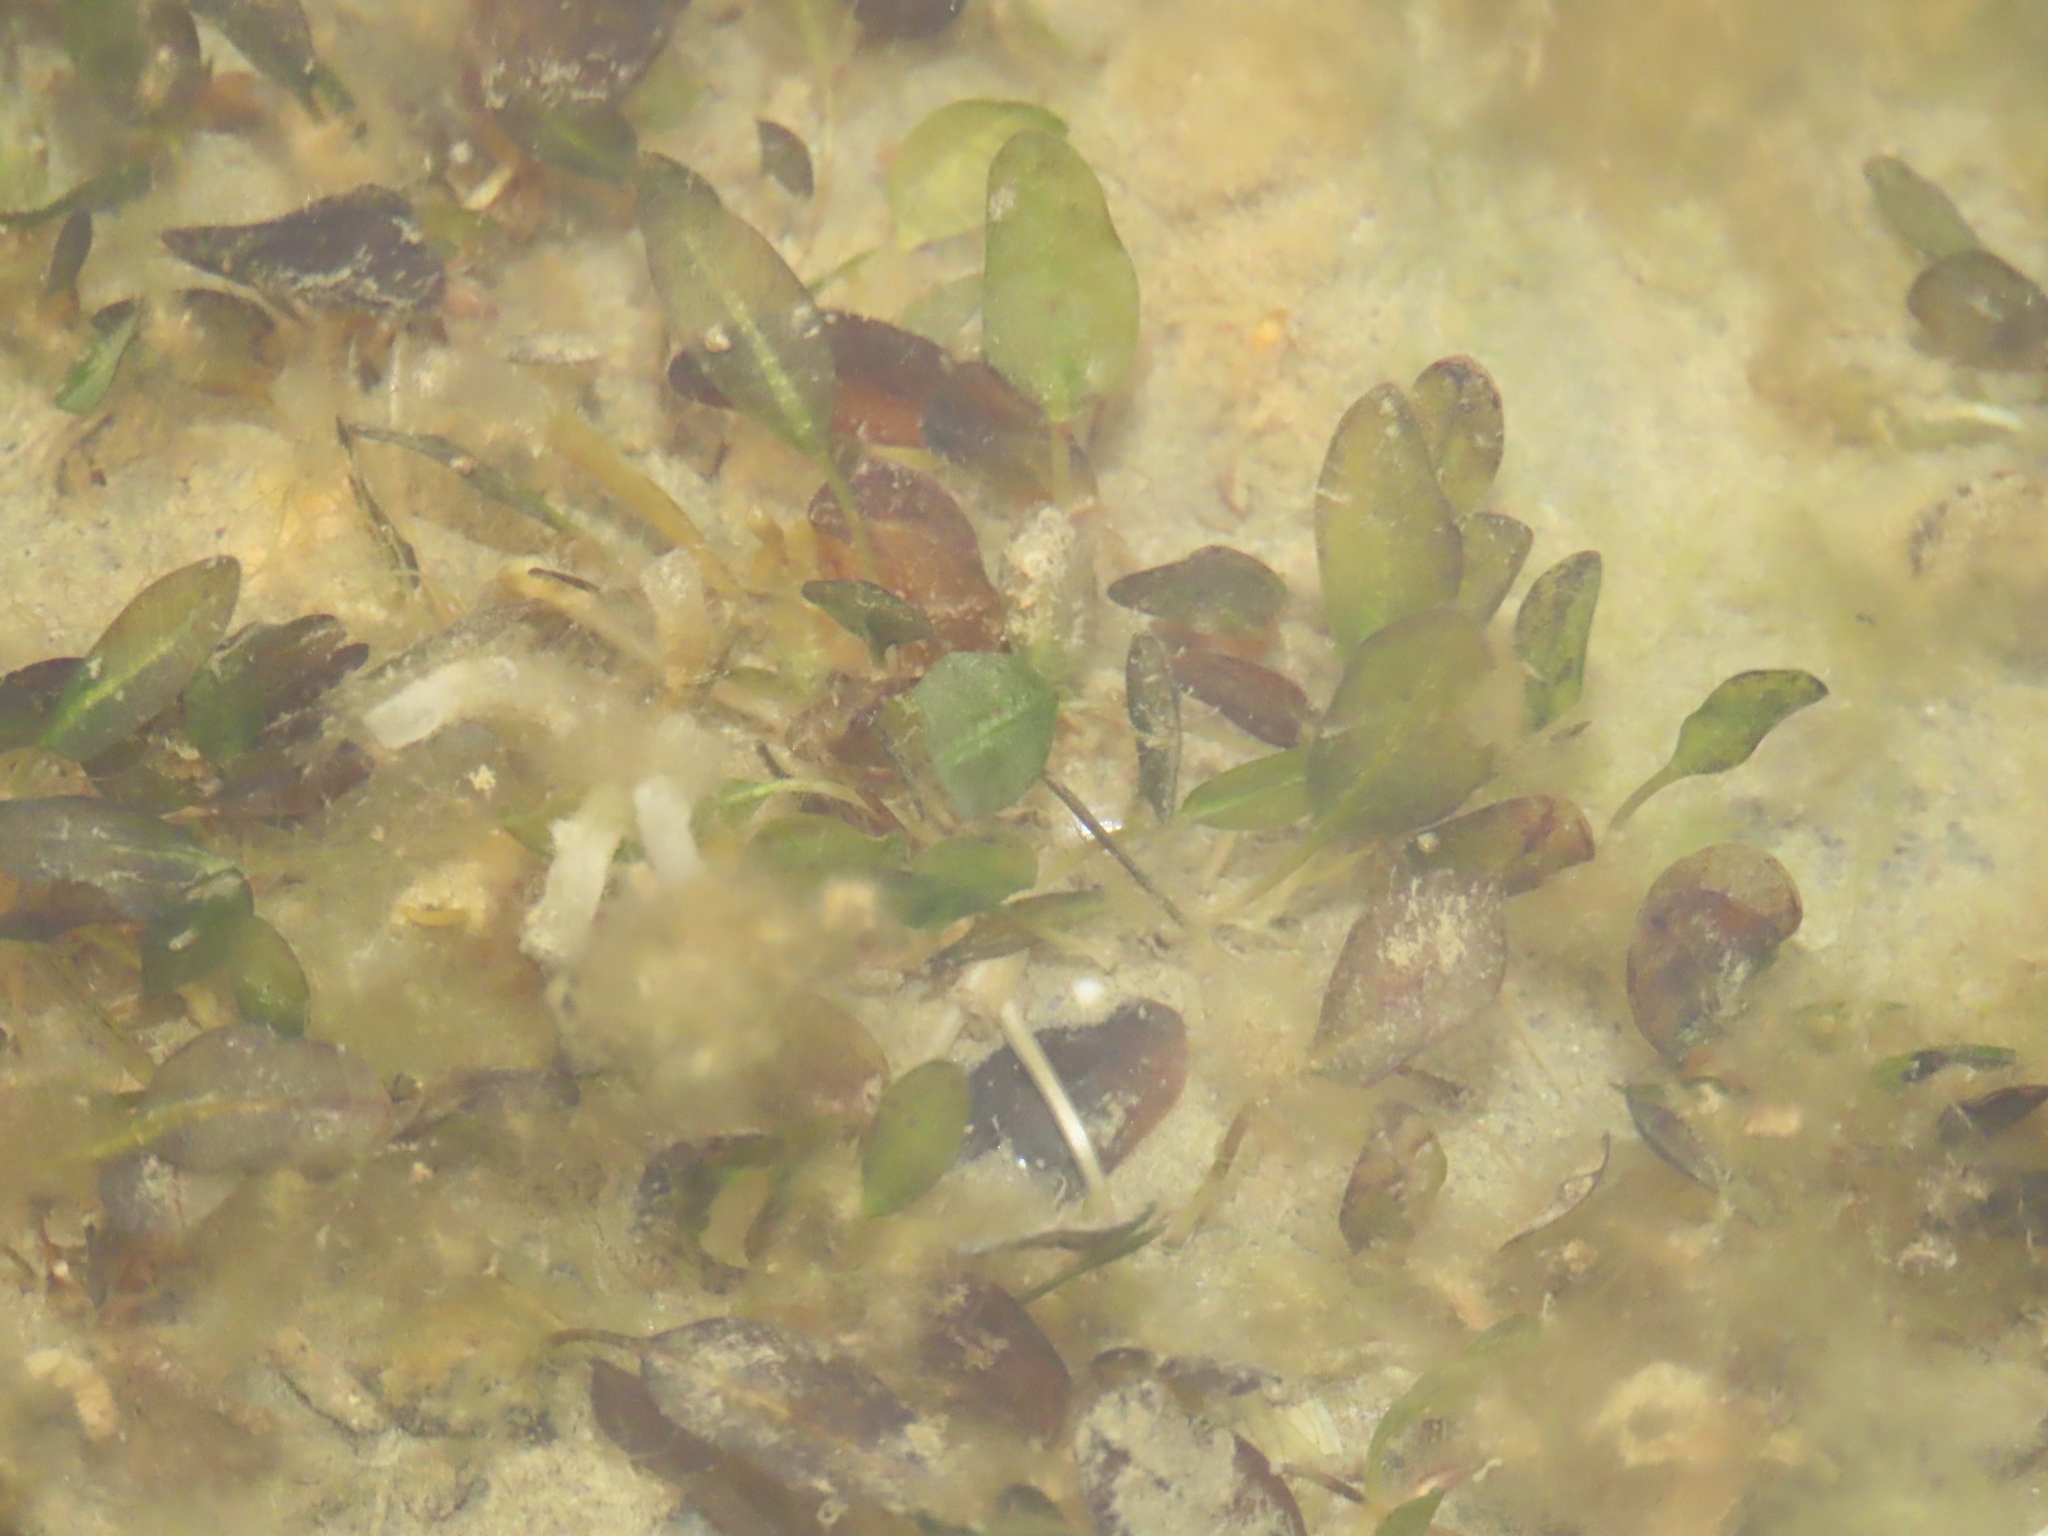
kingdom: Plantae
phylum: Tracheophyta
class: Liliopsida
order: Alismatales
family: Hydrocharitaceae
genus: Halophila
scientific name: Halophila ovalis
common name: Species code: ho
